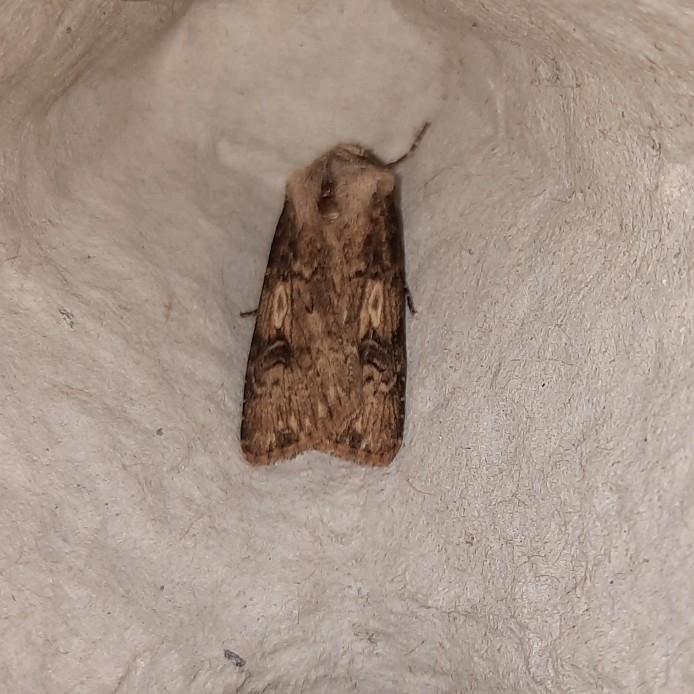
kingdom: Animalia
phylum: Arthropoda
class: Insecta
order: Lepidoptera
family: Noctuidae
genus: Agrotis
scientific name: Agrotis puta
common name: Shuttle-shaped dart
